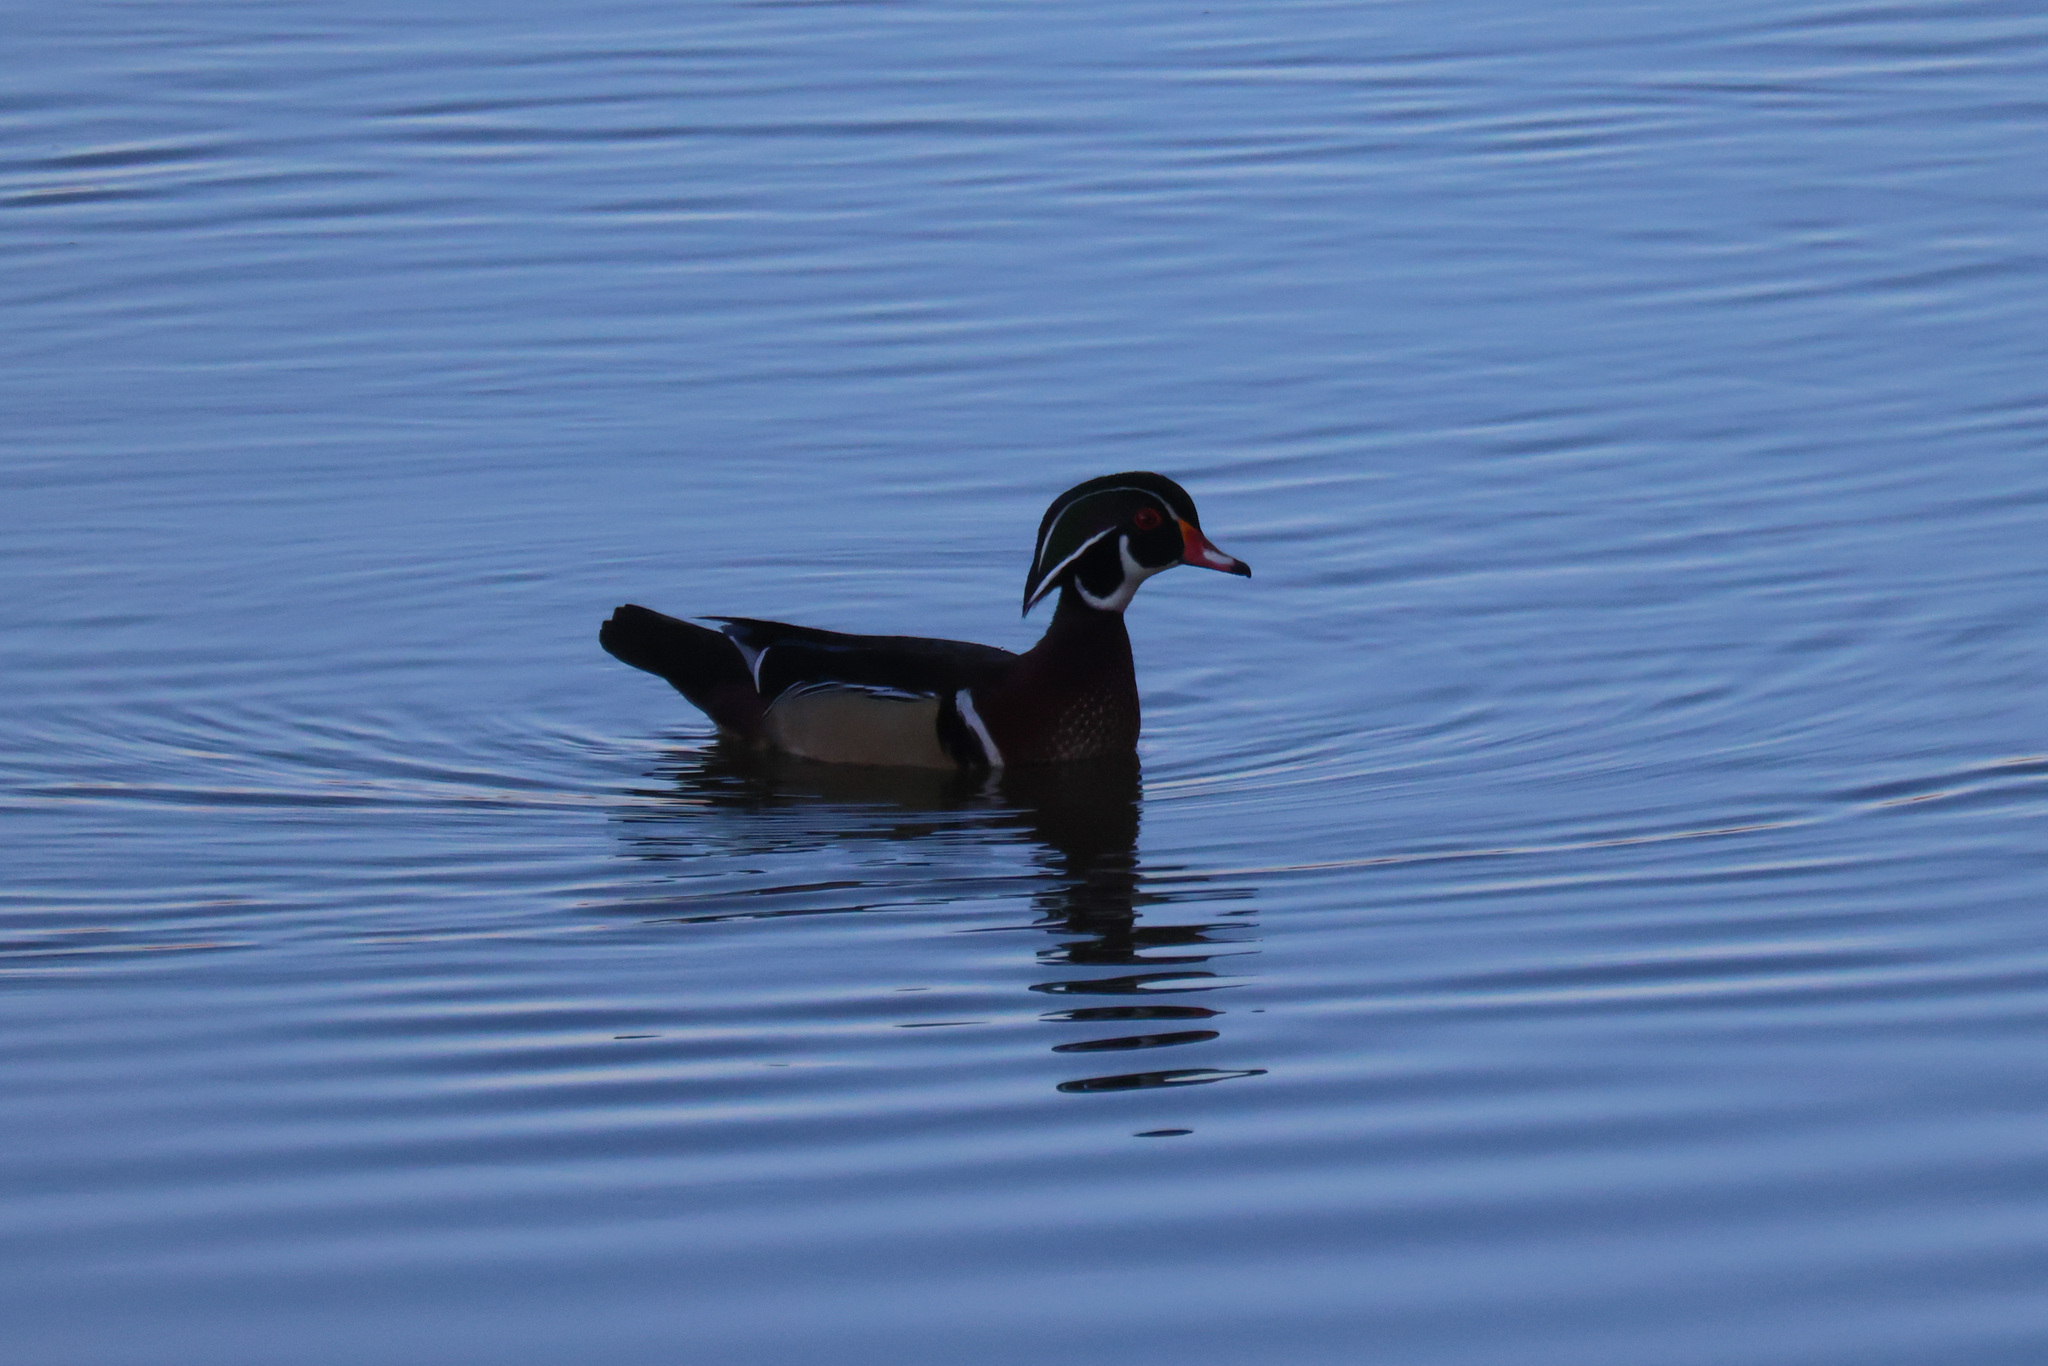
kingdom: Animalia
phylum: Chordata
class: Aves
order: Anseriformes
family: Anatidae
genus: Aix
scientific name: Aix sponsa
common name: Wood duck
